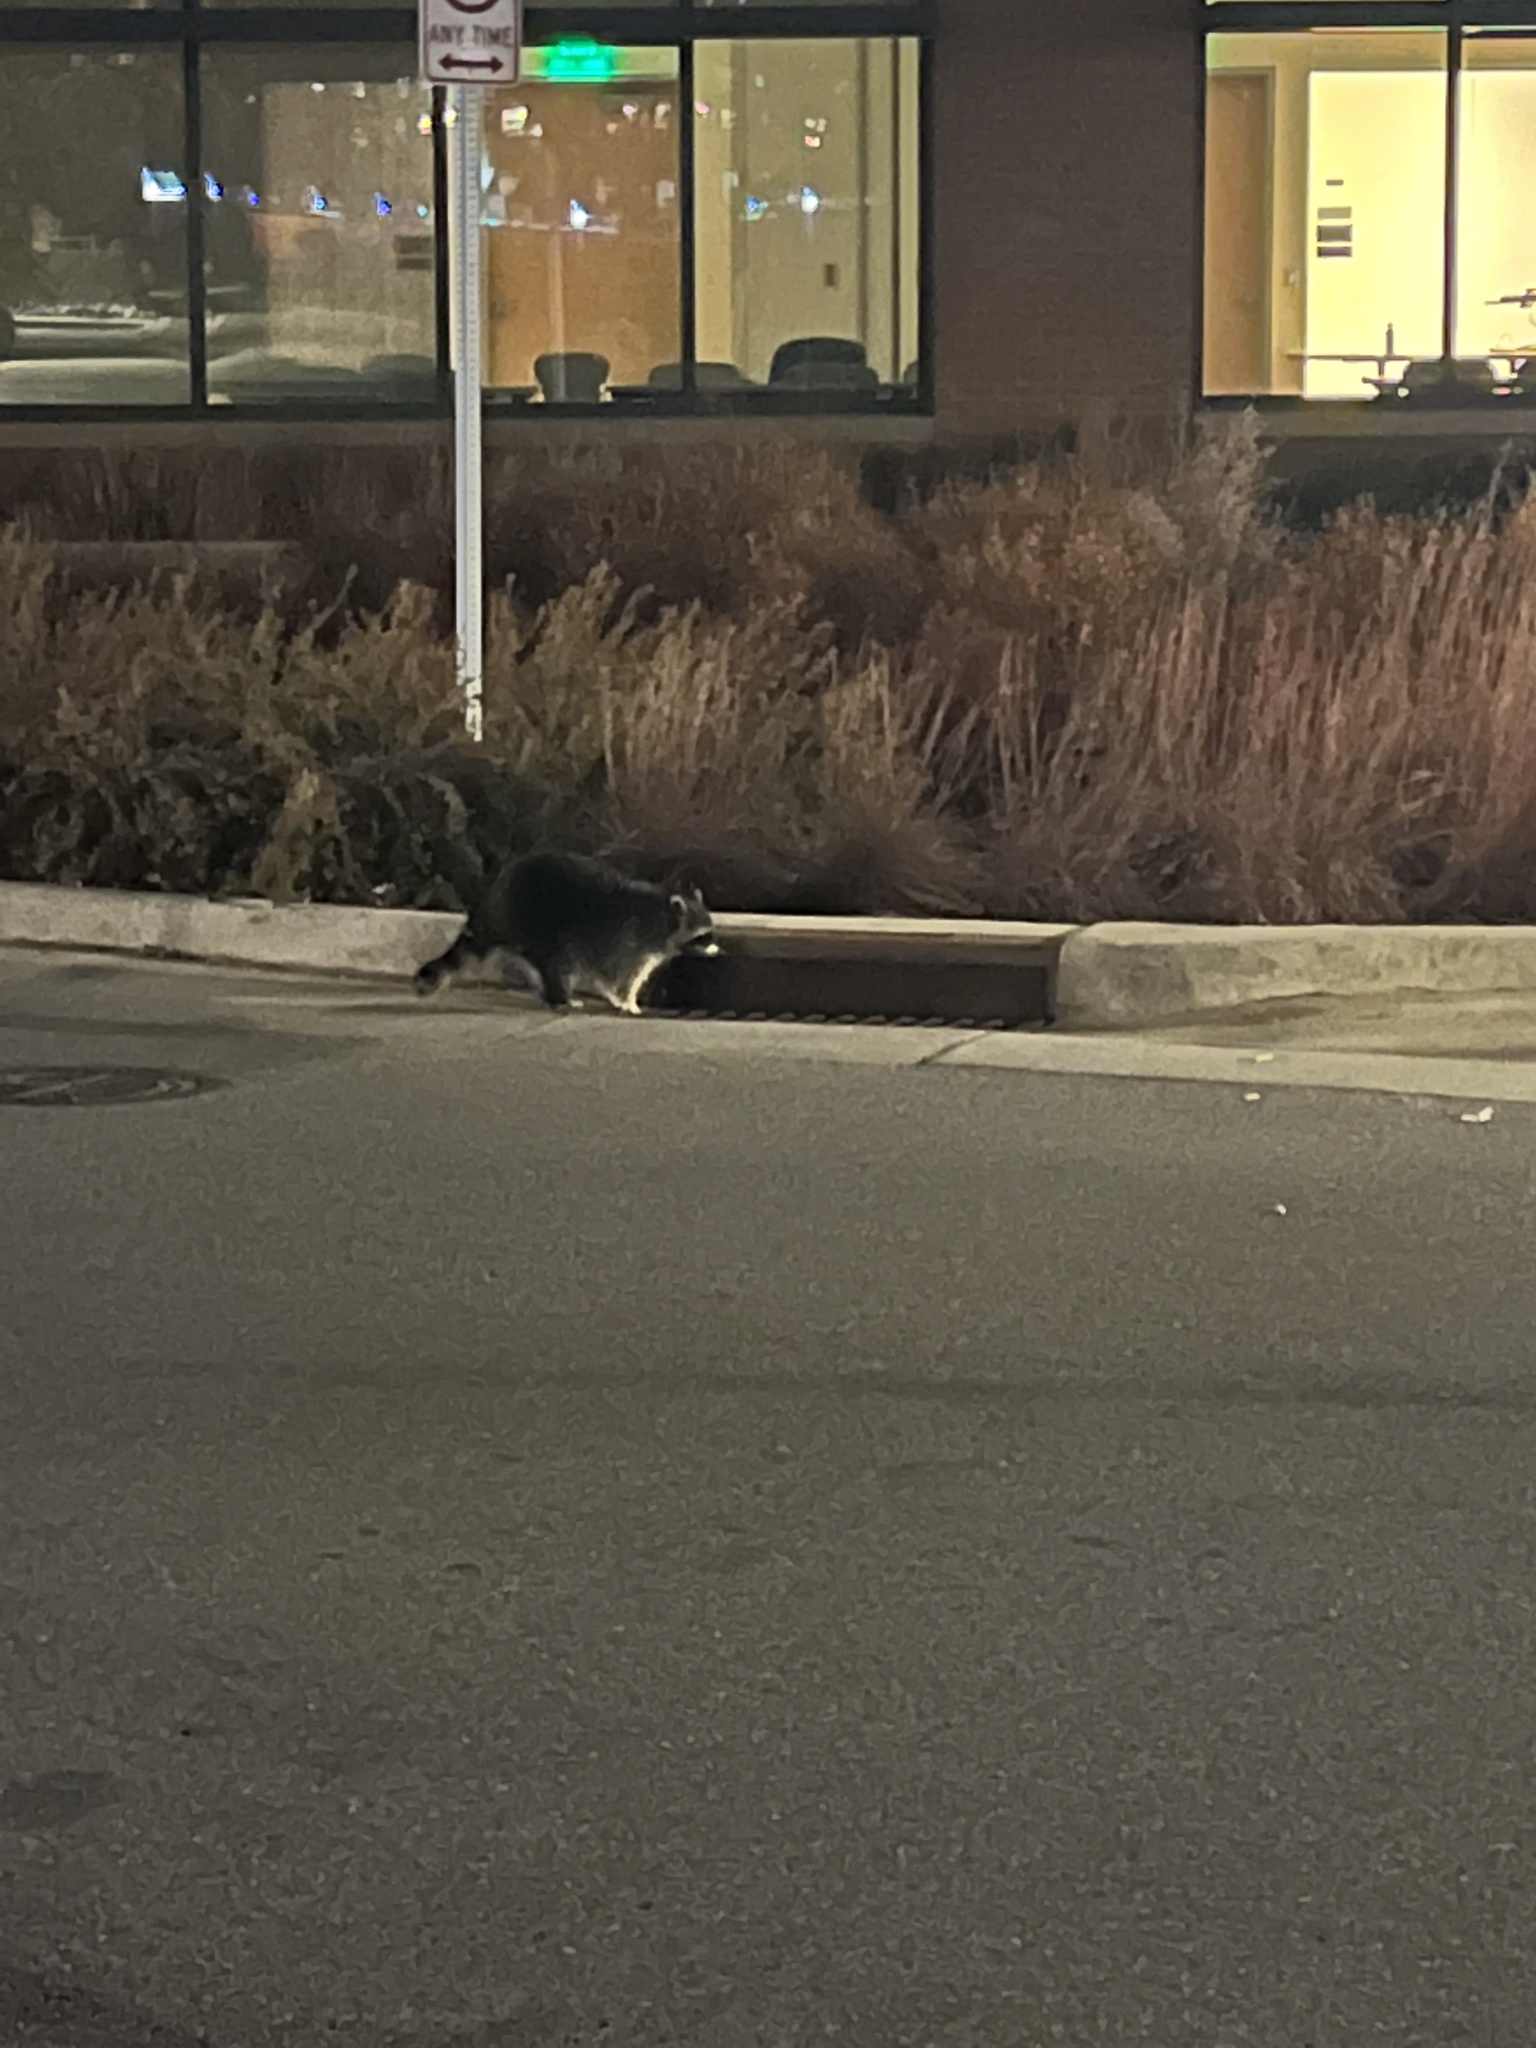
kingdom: Animalia
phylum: Chordata
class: Mammalia
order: Carnivora
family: Procyonidae
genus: Procyon
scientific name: Procyon lotor
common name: Raccoon
